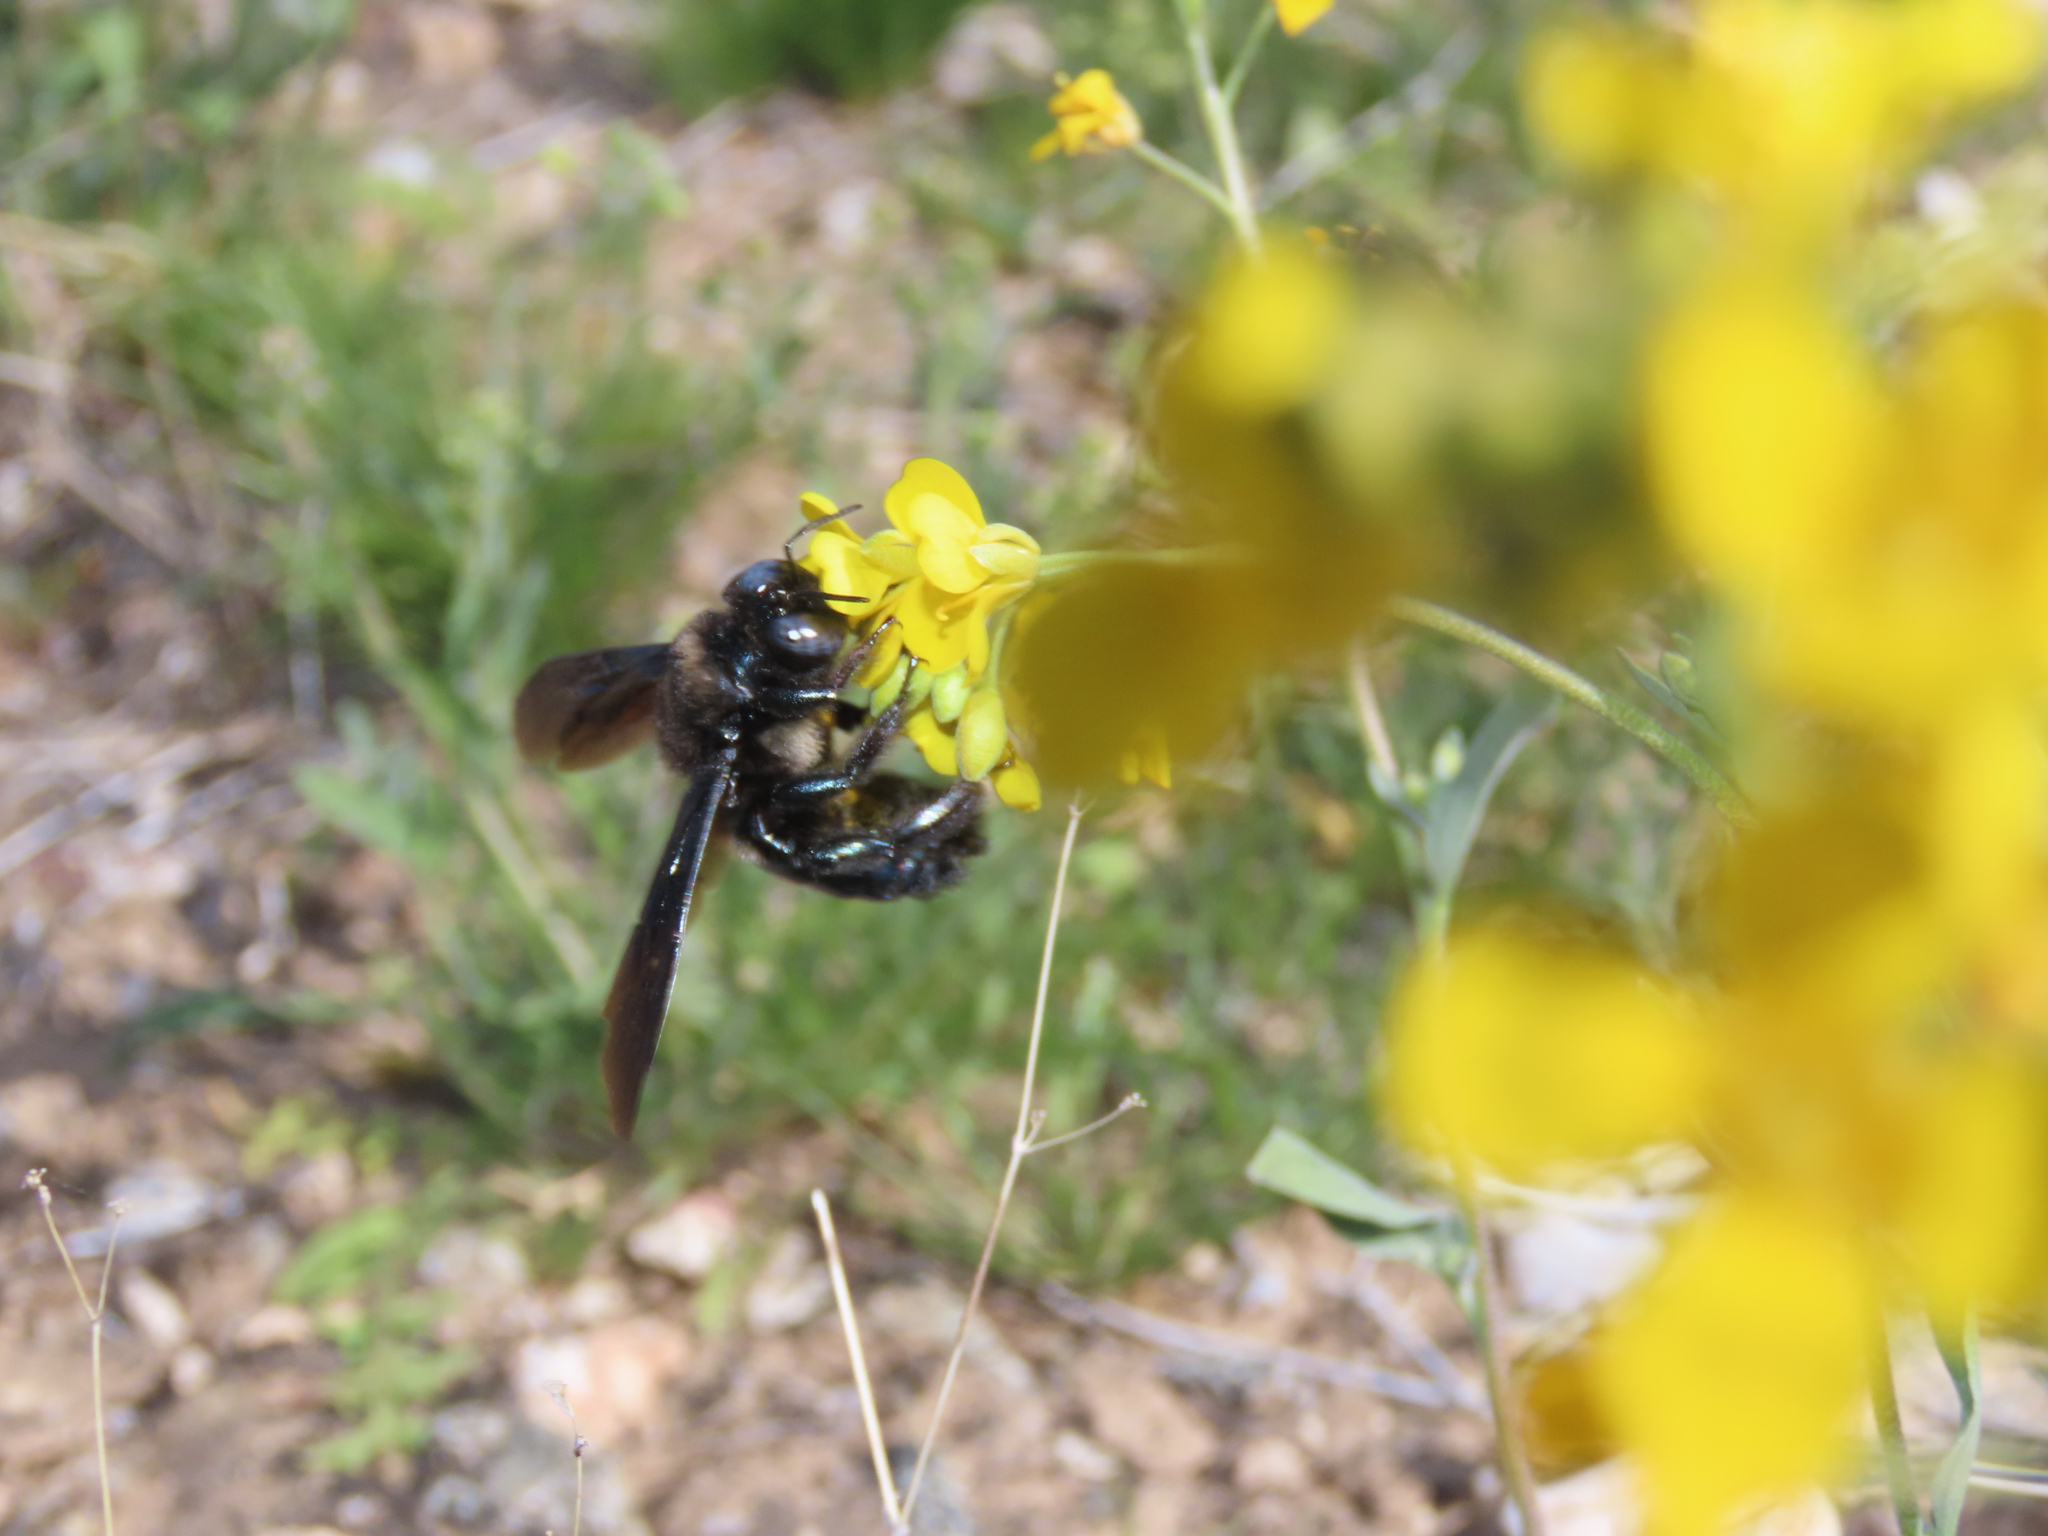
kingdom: Animalia
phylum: Arthropoda
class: Insecta
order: Hymenoptera
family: Apidae
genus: Xylocopa
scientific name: Xylocopa californica
